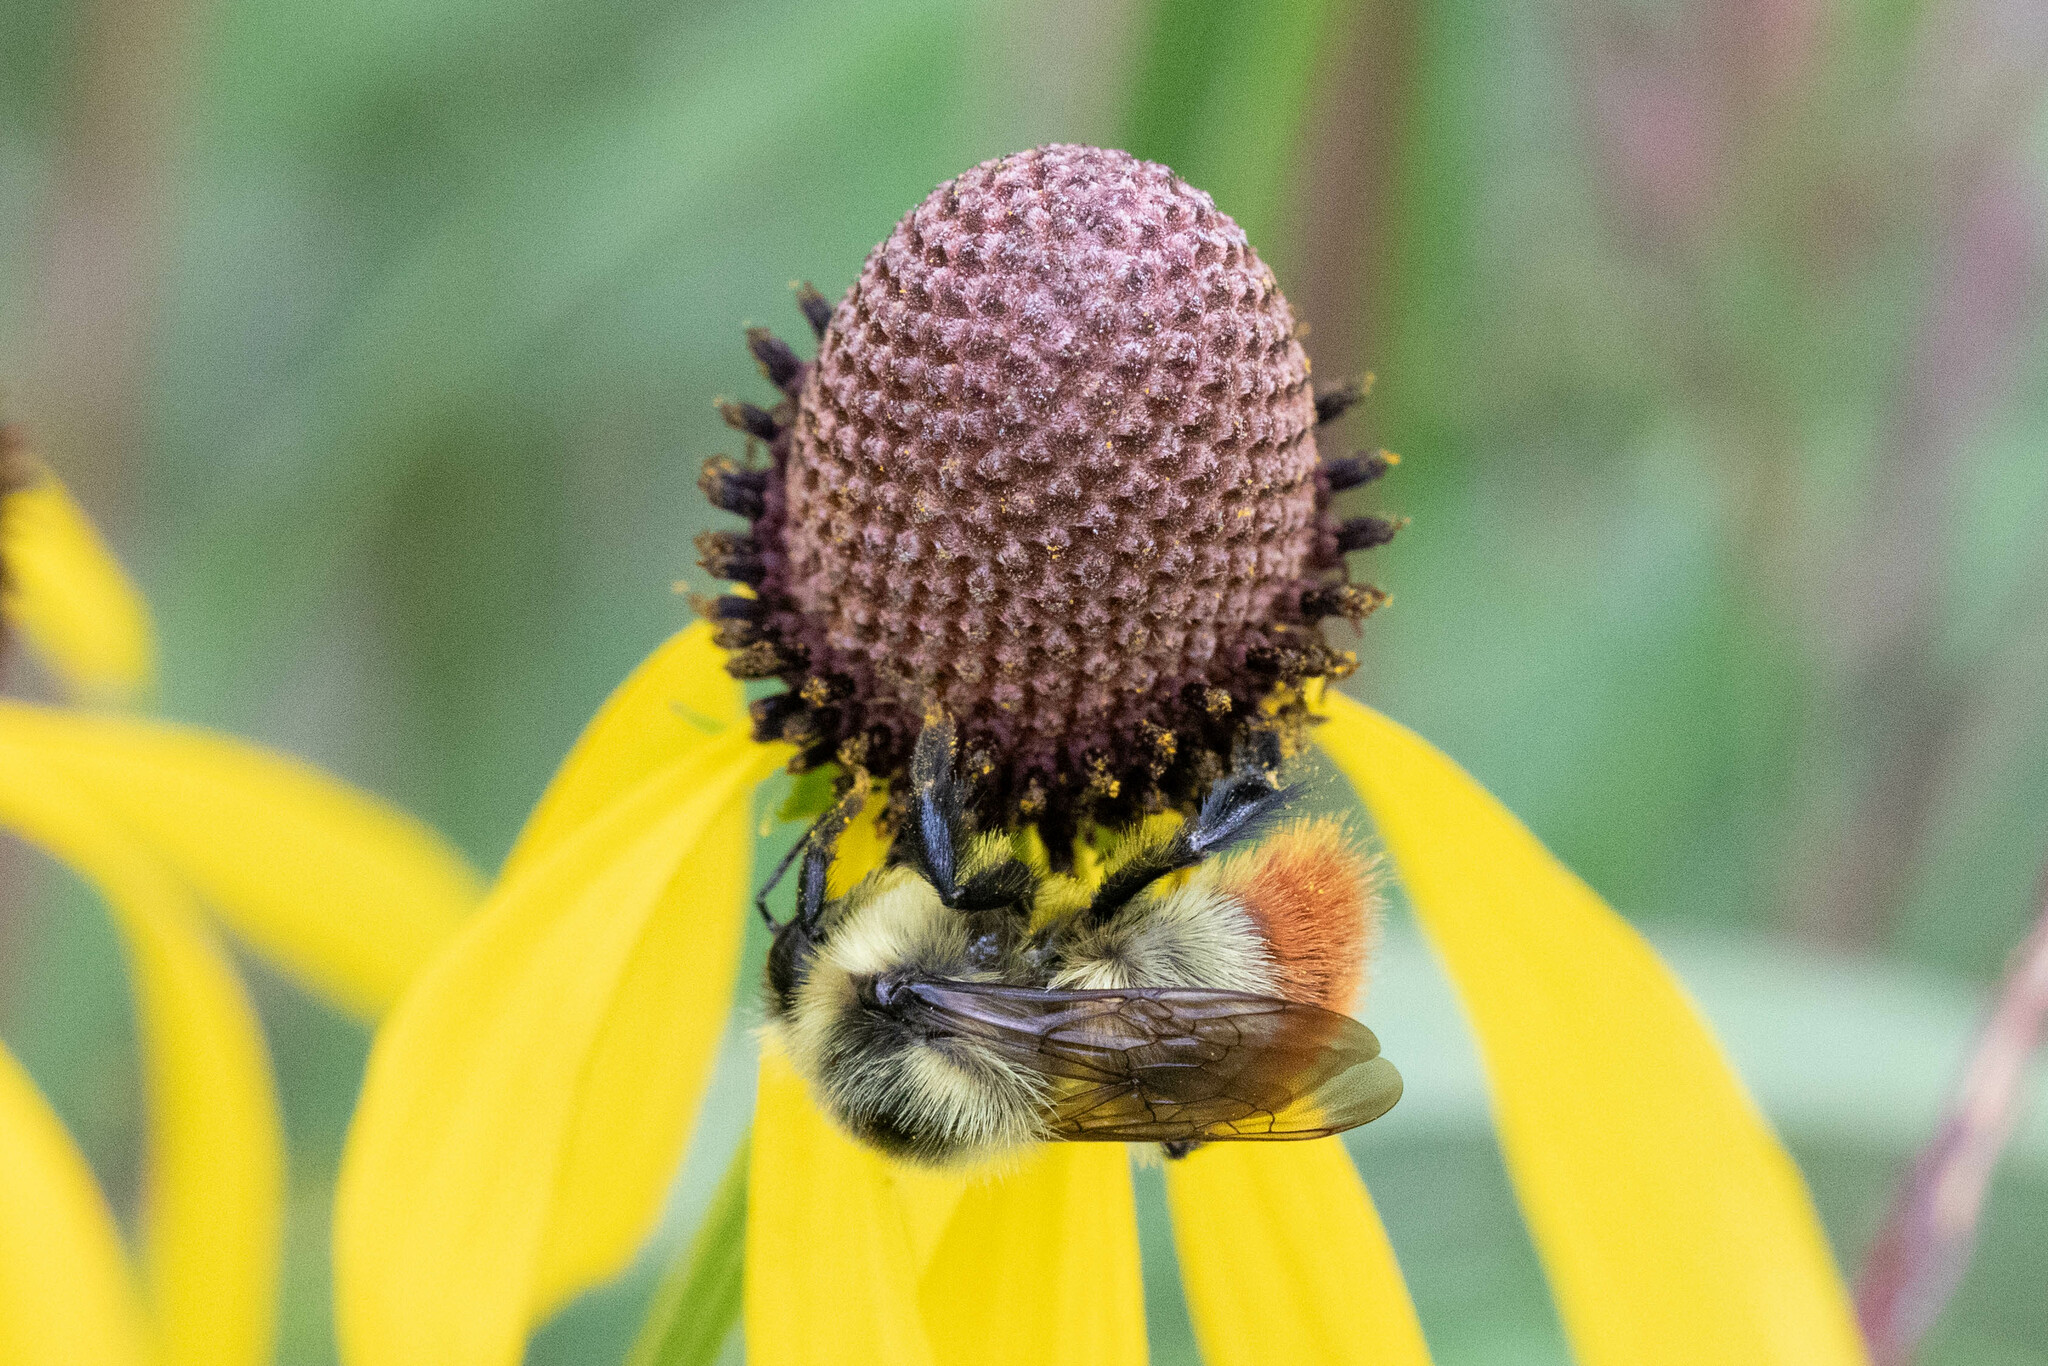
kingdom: Animalia
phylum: Arthropoda
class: Insecta
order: Hymenoptera
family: Apidae
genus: Bombus
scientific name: Bombus rufocinctus
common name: Red-belted bumble bee
